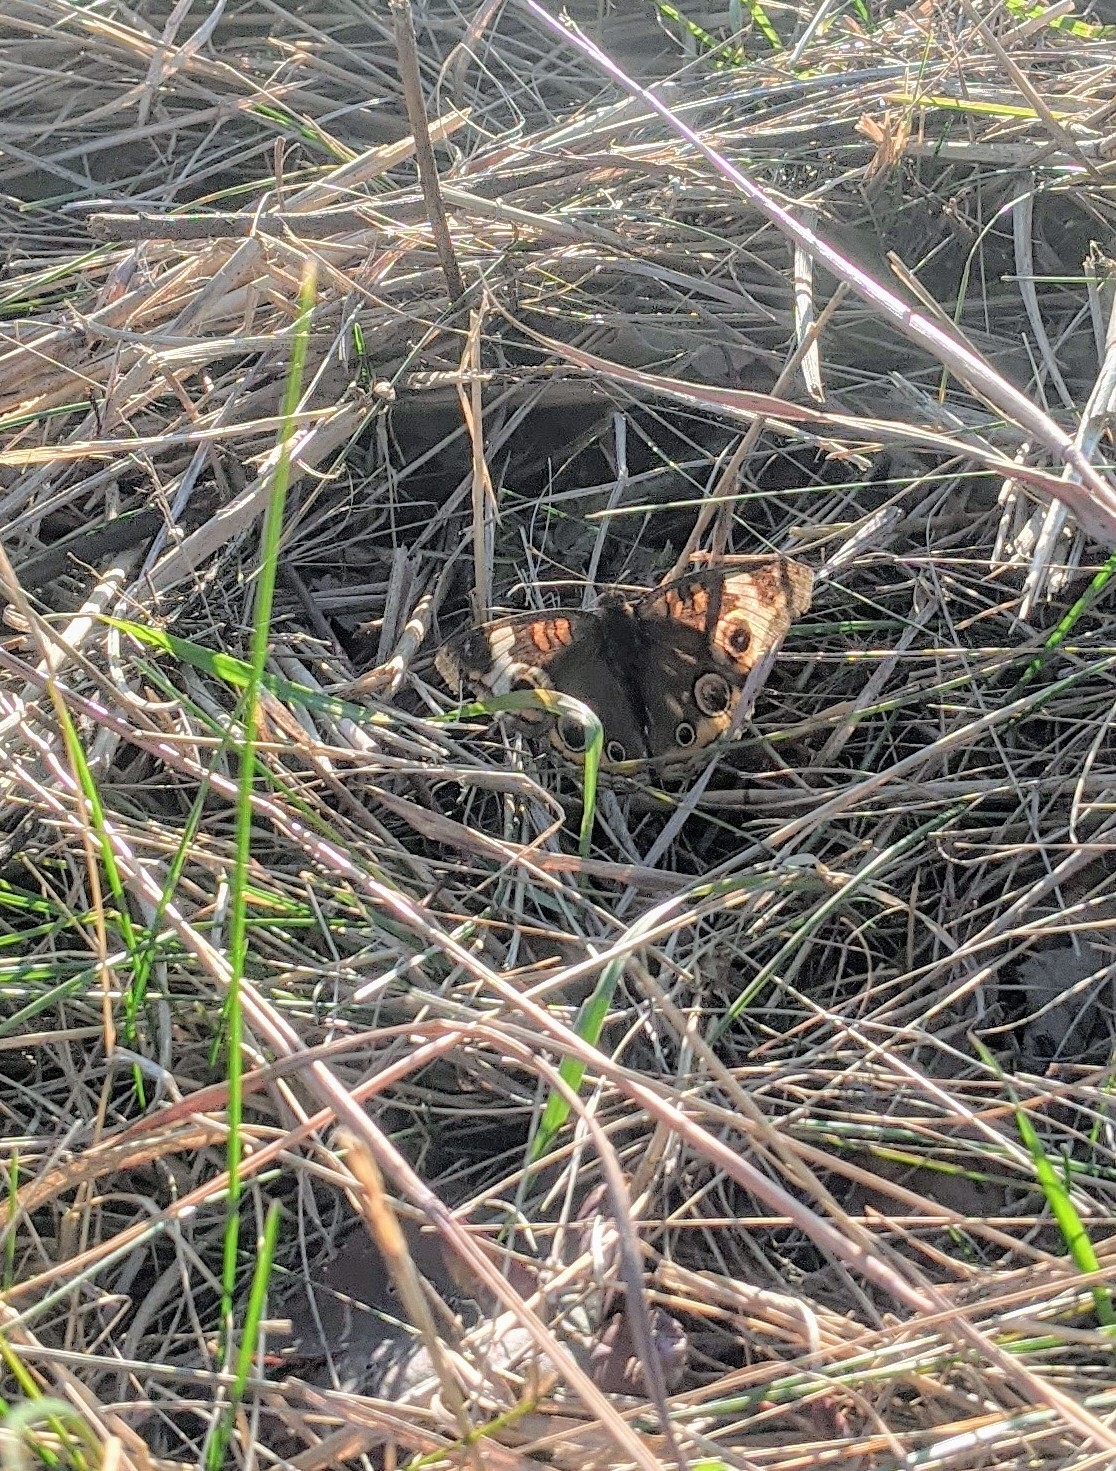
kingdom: Animalia
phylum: Arthropoda
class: Insecta
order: Lepidoptera
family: Nymphalidae
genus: Junonia
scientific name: Junonia coenia
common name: Common buckeye
